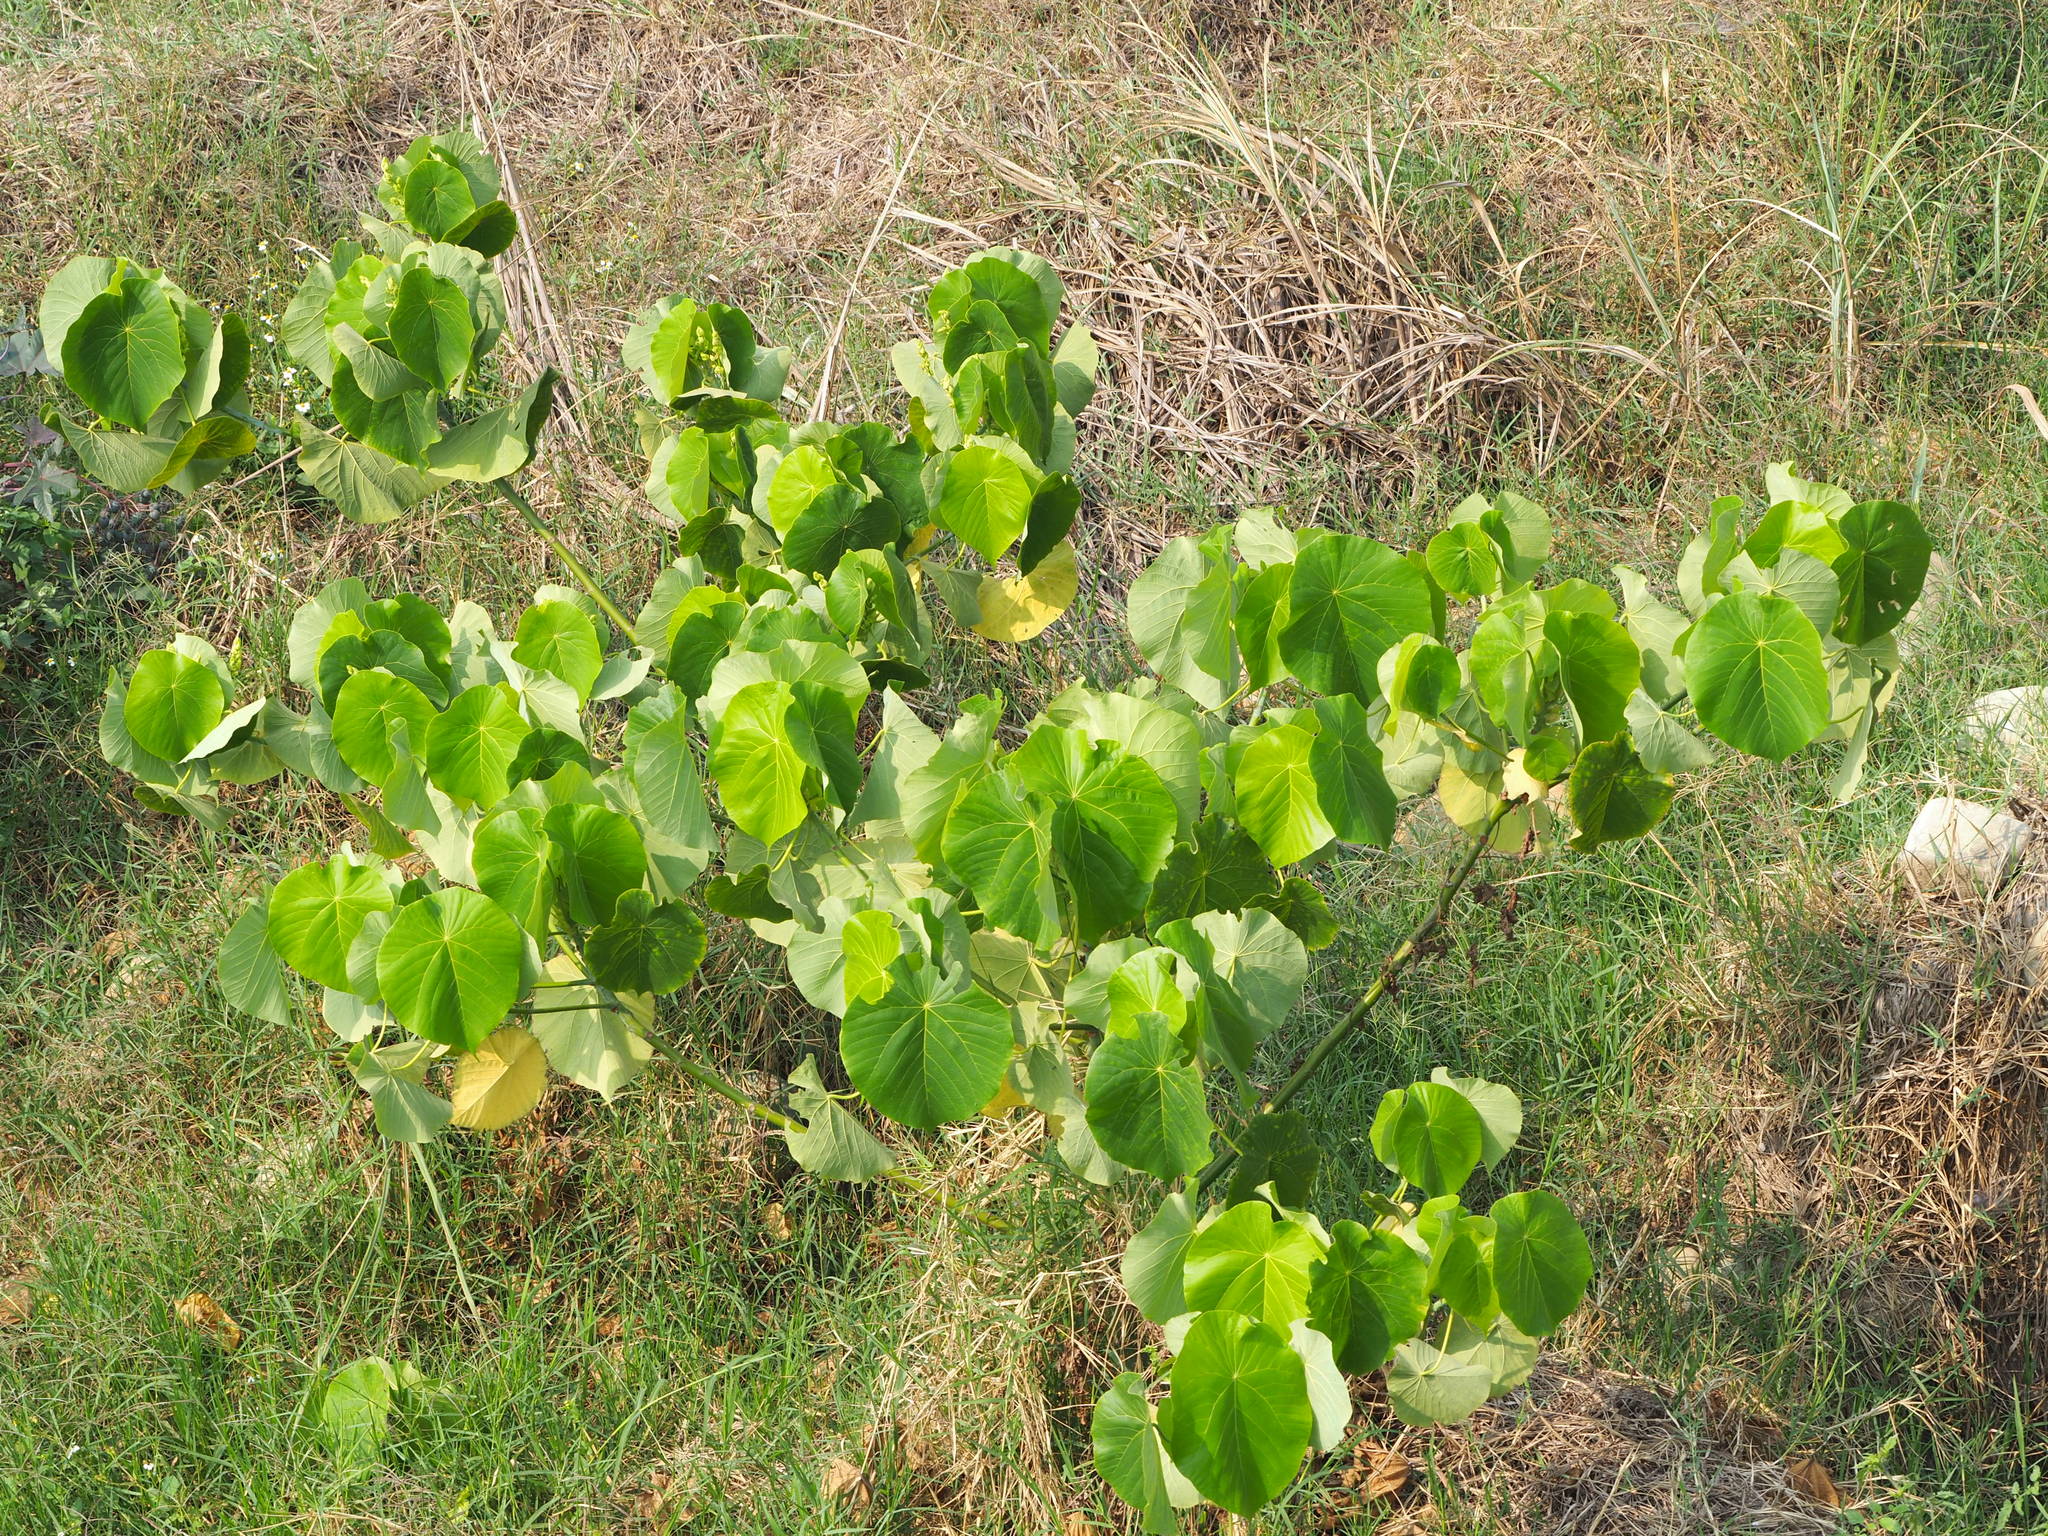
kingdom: Plantae
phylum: Tracheophyta
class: Magnoliopsida
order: Malpighiales
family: Euphorbiaceae
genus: Macaranga
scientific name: Macaranga tanarius
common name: Parasol leaf tree
